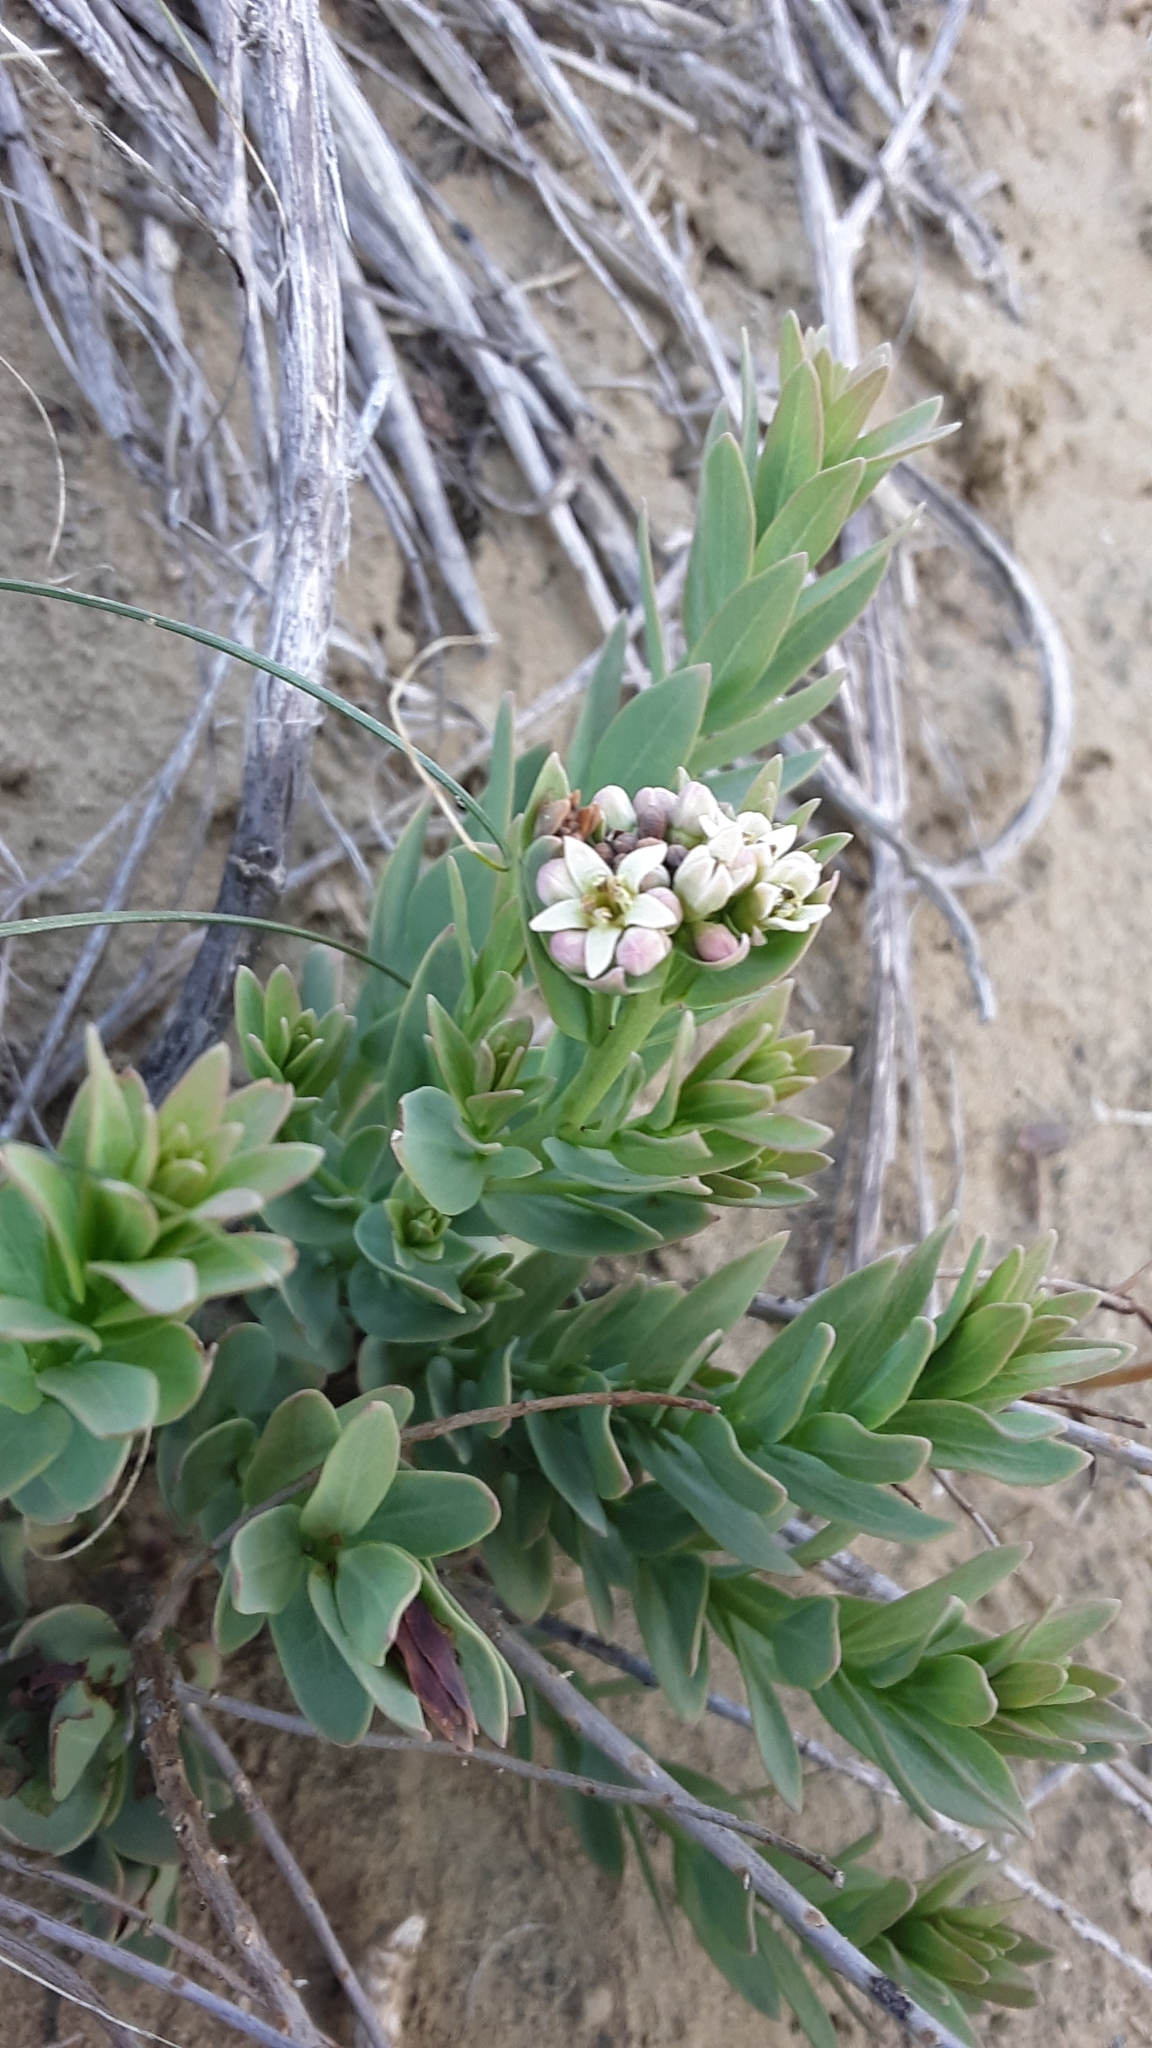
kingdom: Plantae
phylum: Tracheophyta
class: Magnoliopsida
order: Santalales
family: Comandraceae
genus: Comandra
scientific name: Comandra umbellata
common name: Bastard toadflax
